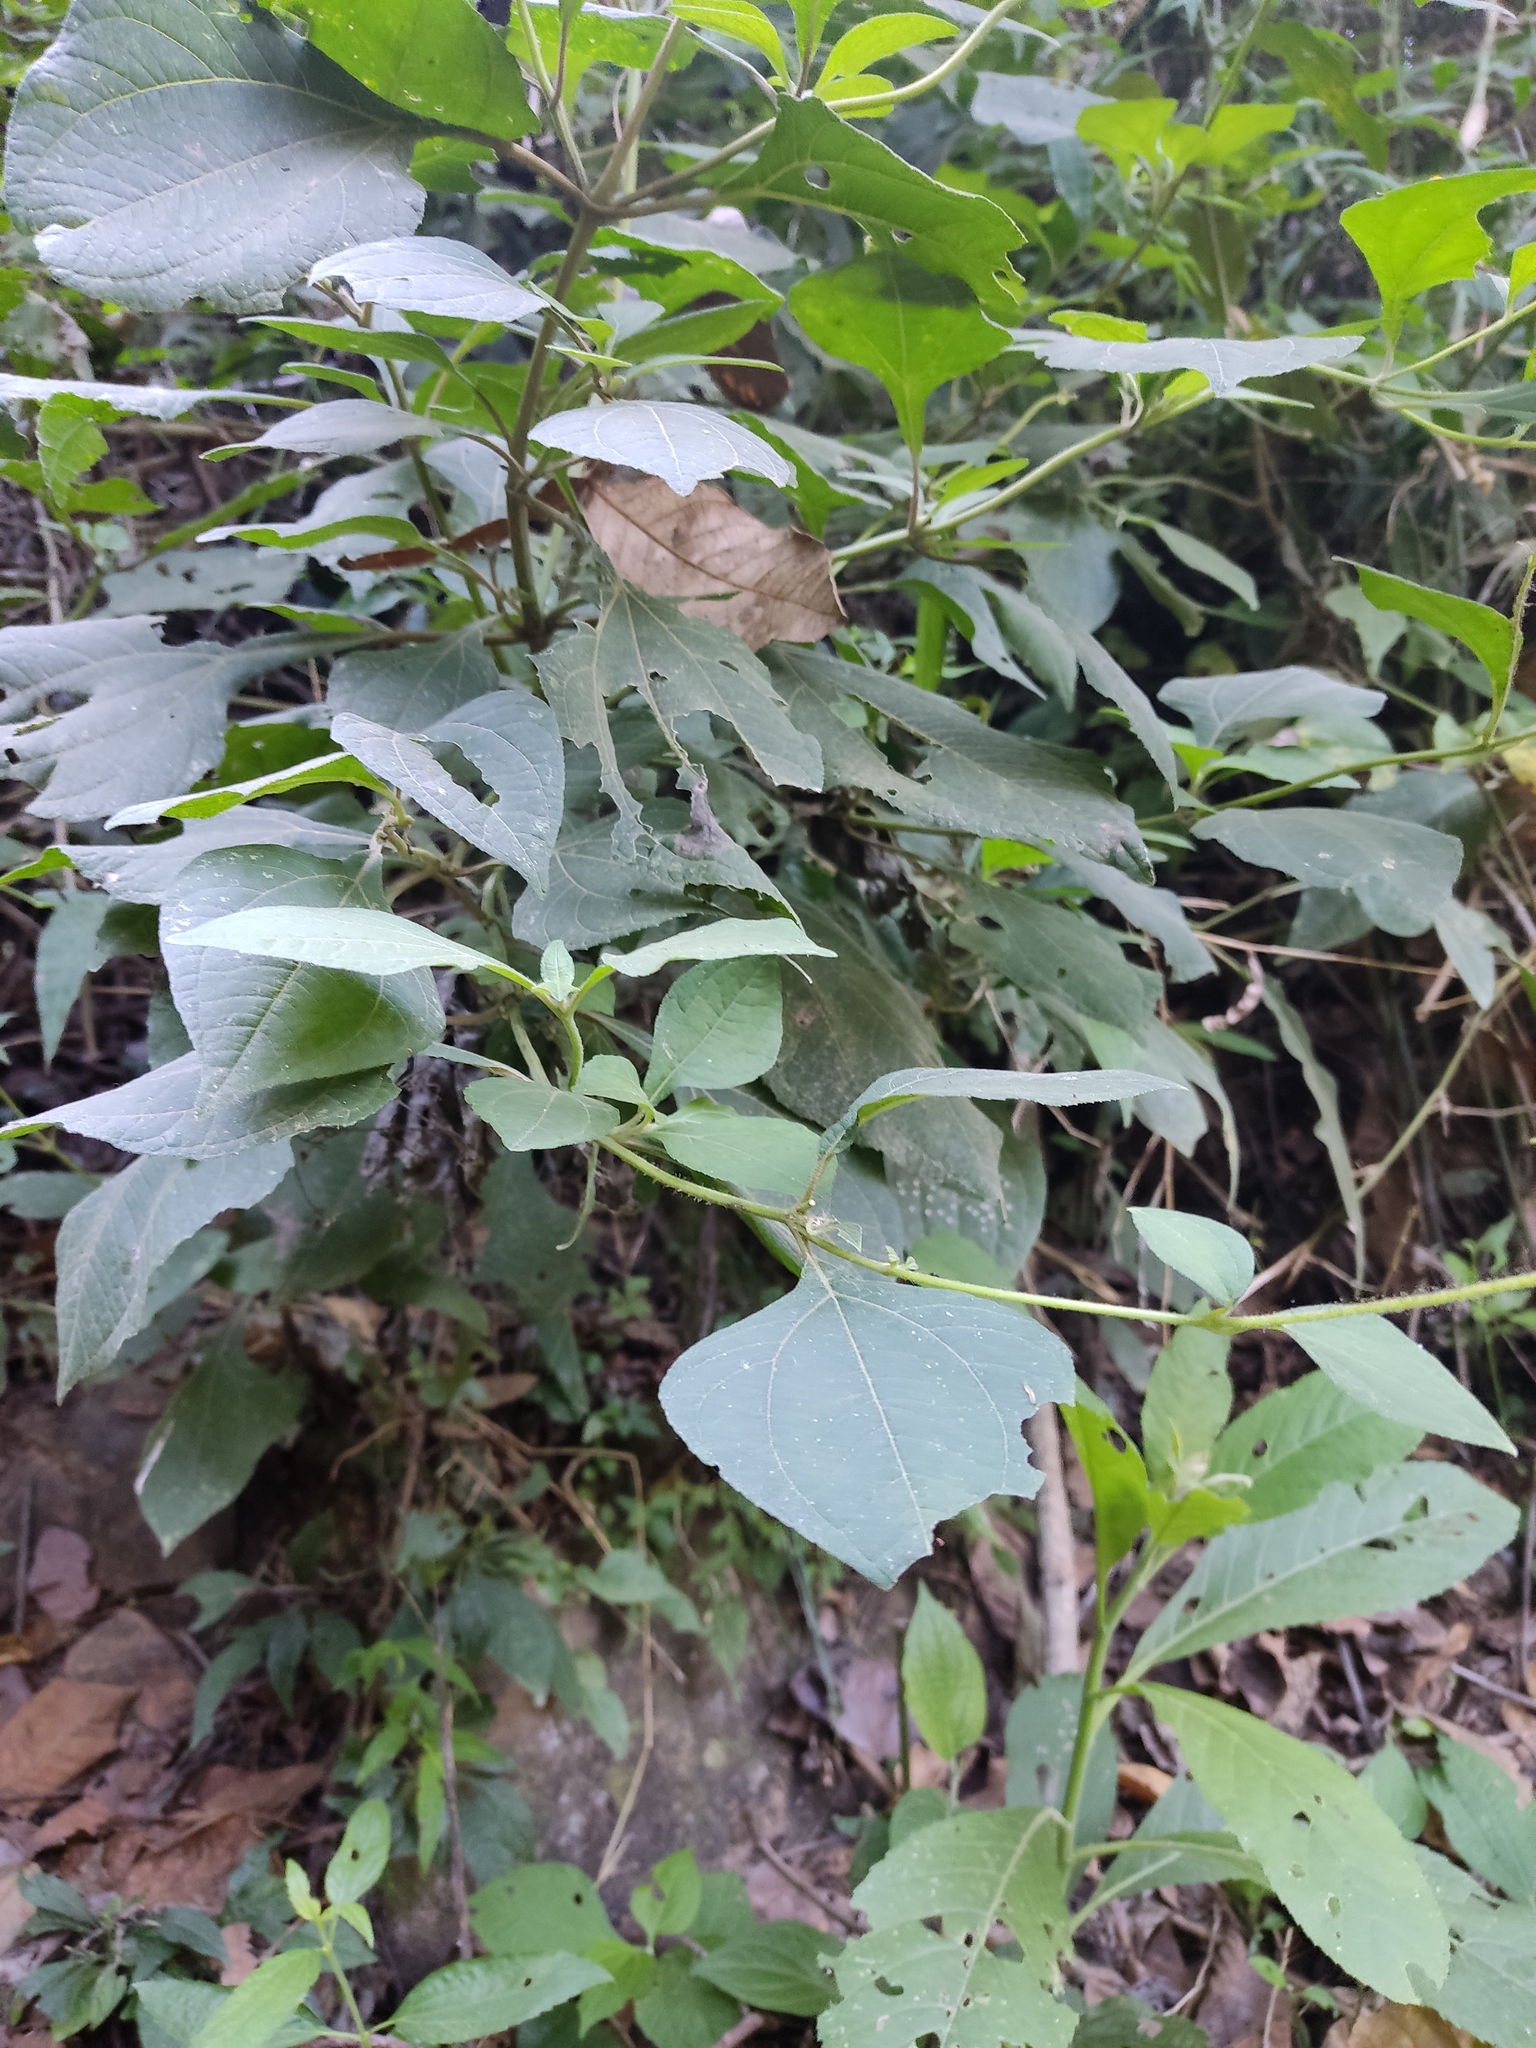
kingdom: Plantae
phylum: Tracheophyta
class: Magnoliopsida
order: Asterales
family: Asteraceae
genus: Trigonospermum
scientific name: Trigonospermum melampodioides
